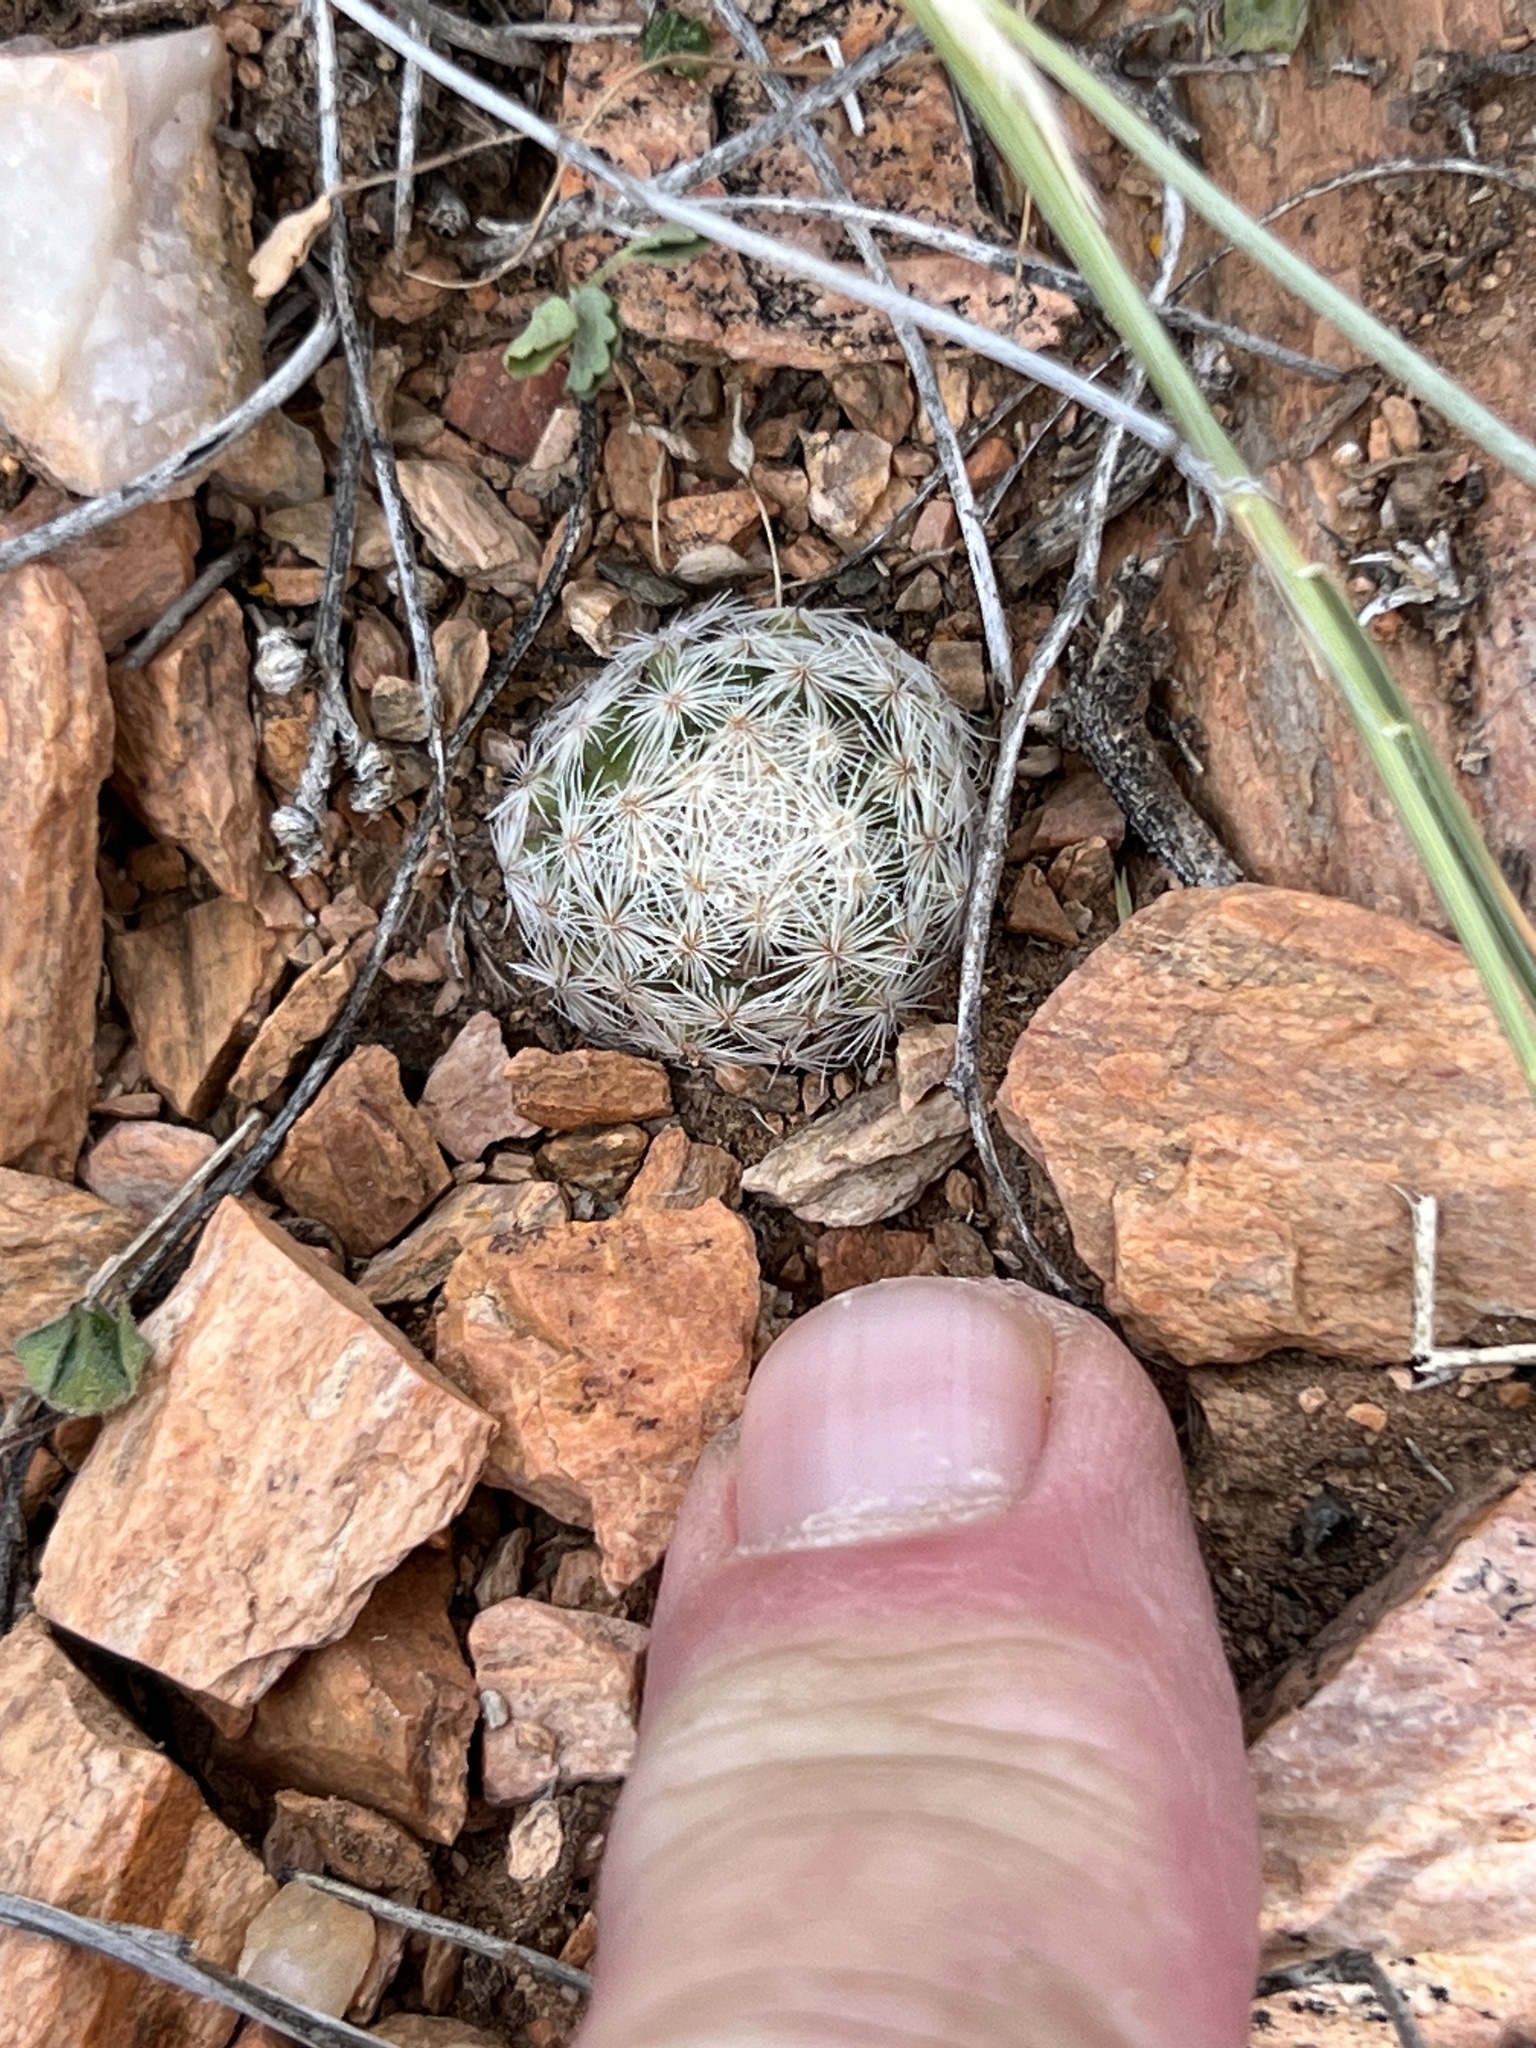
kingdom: Plantae
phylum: Tracheophyta
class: Magnoliopsida
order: Caryophyllales
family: Cactaceae
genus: Mammillaria
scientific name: Mammillaria lasiacantha
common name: Lace-spine nipple cactus
